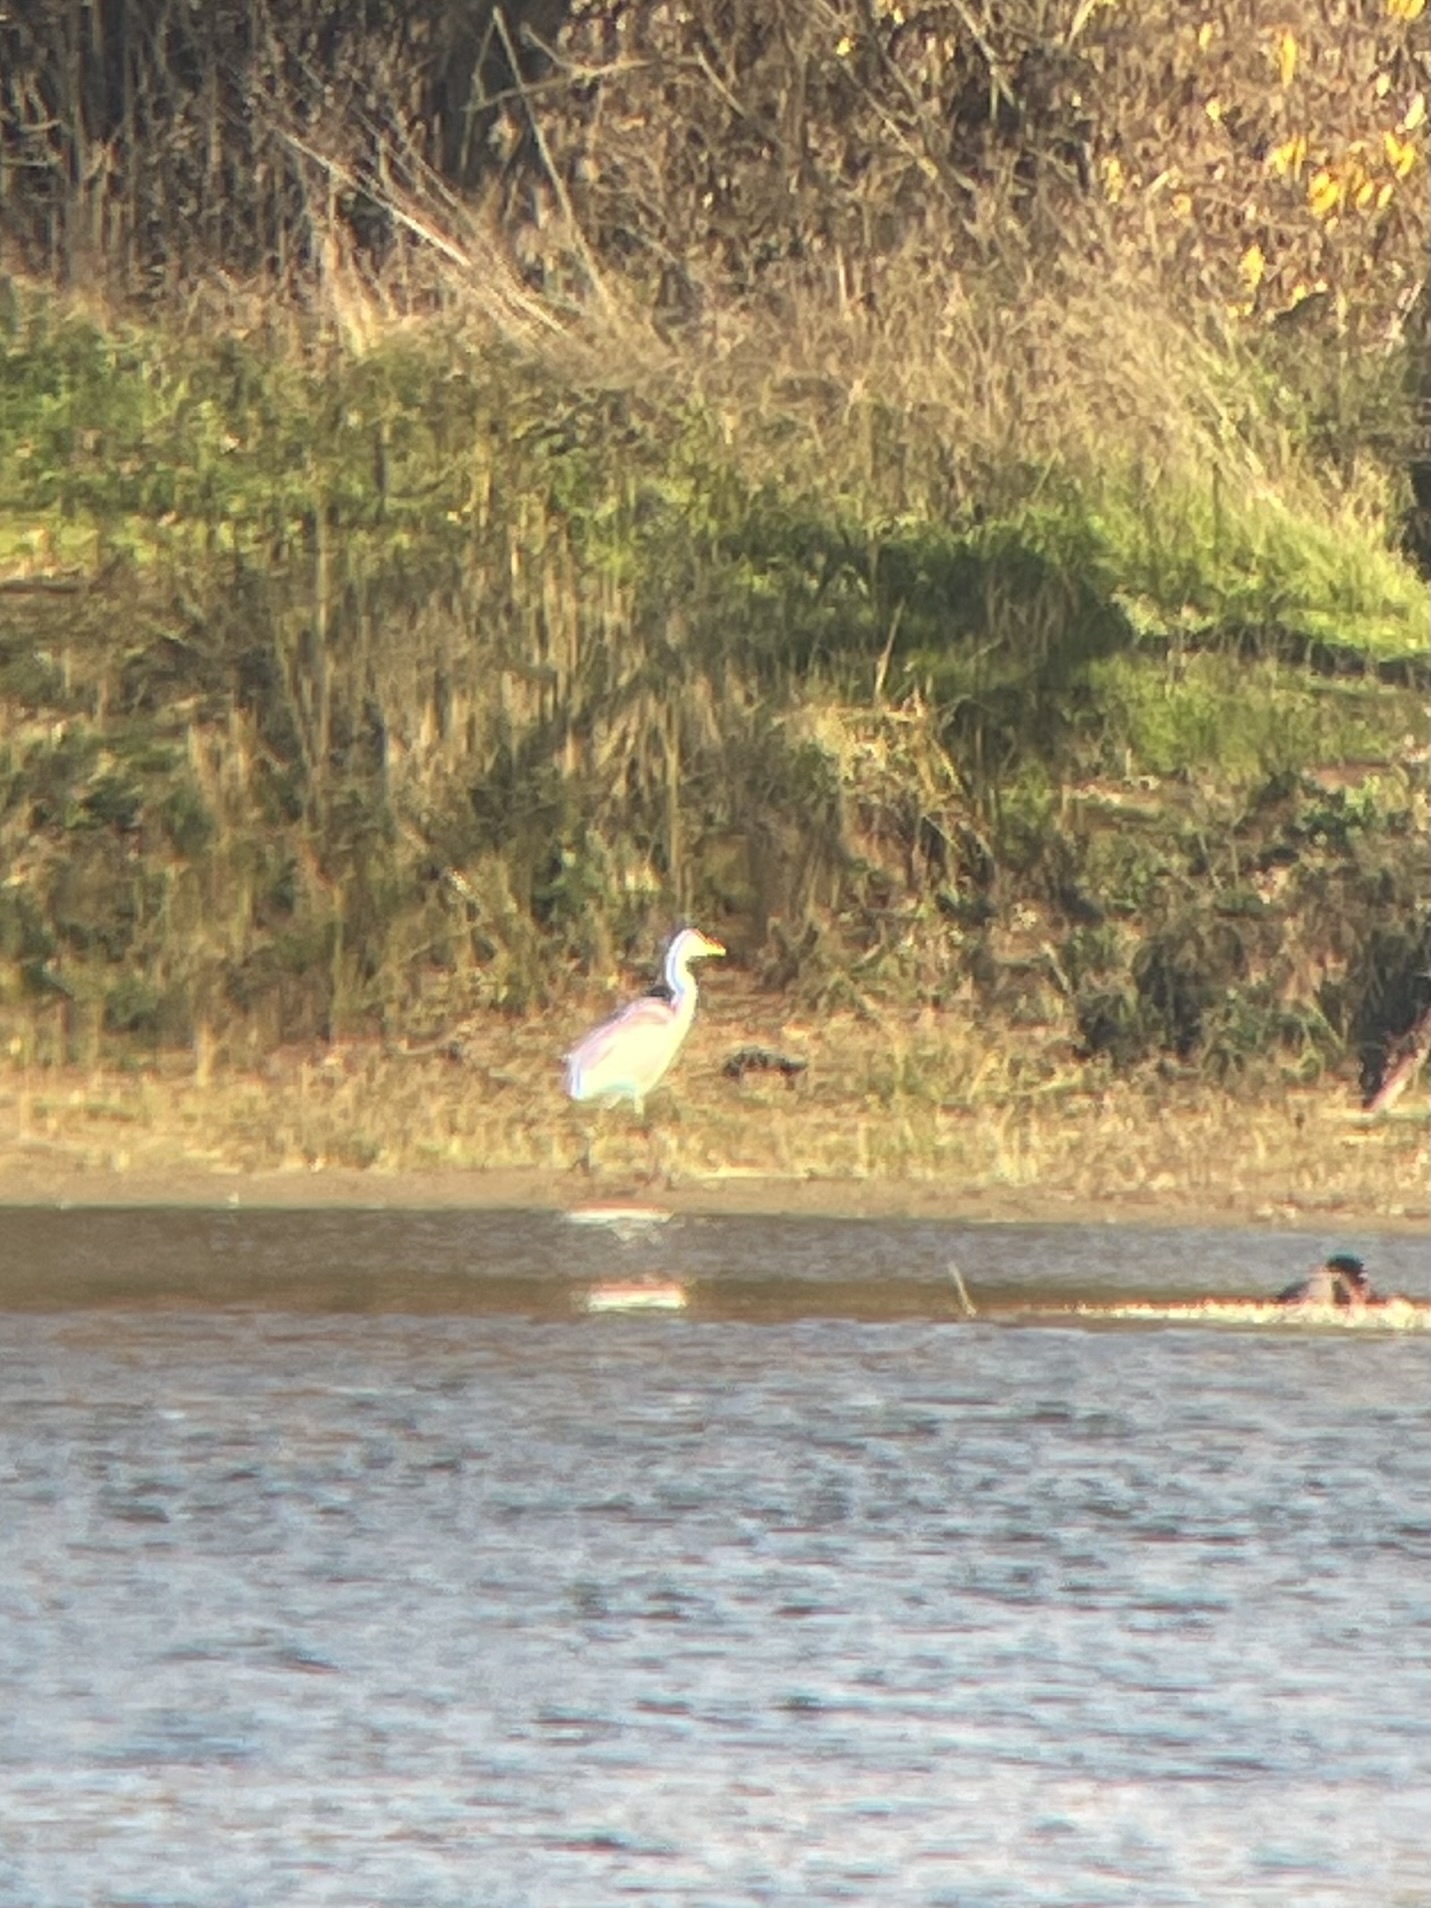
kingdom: Animalia
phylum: Chordata
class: Aves
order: Pelecaniformes
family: Ardeidae
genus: Ardea
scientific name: Ardea alba
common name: Great egret
